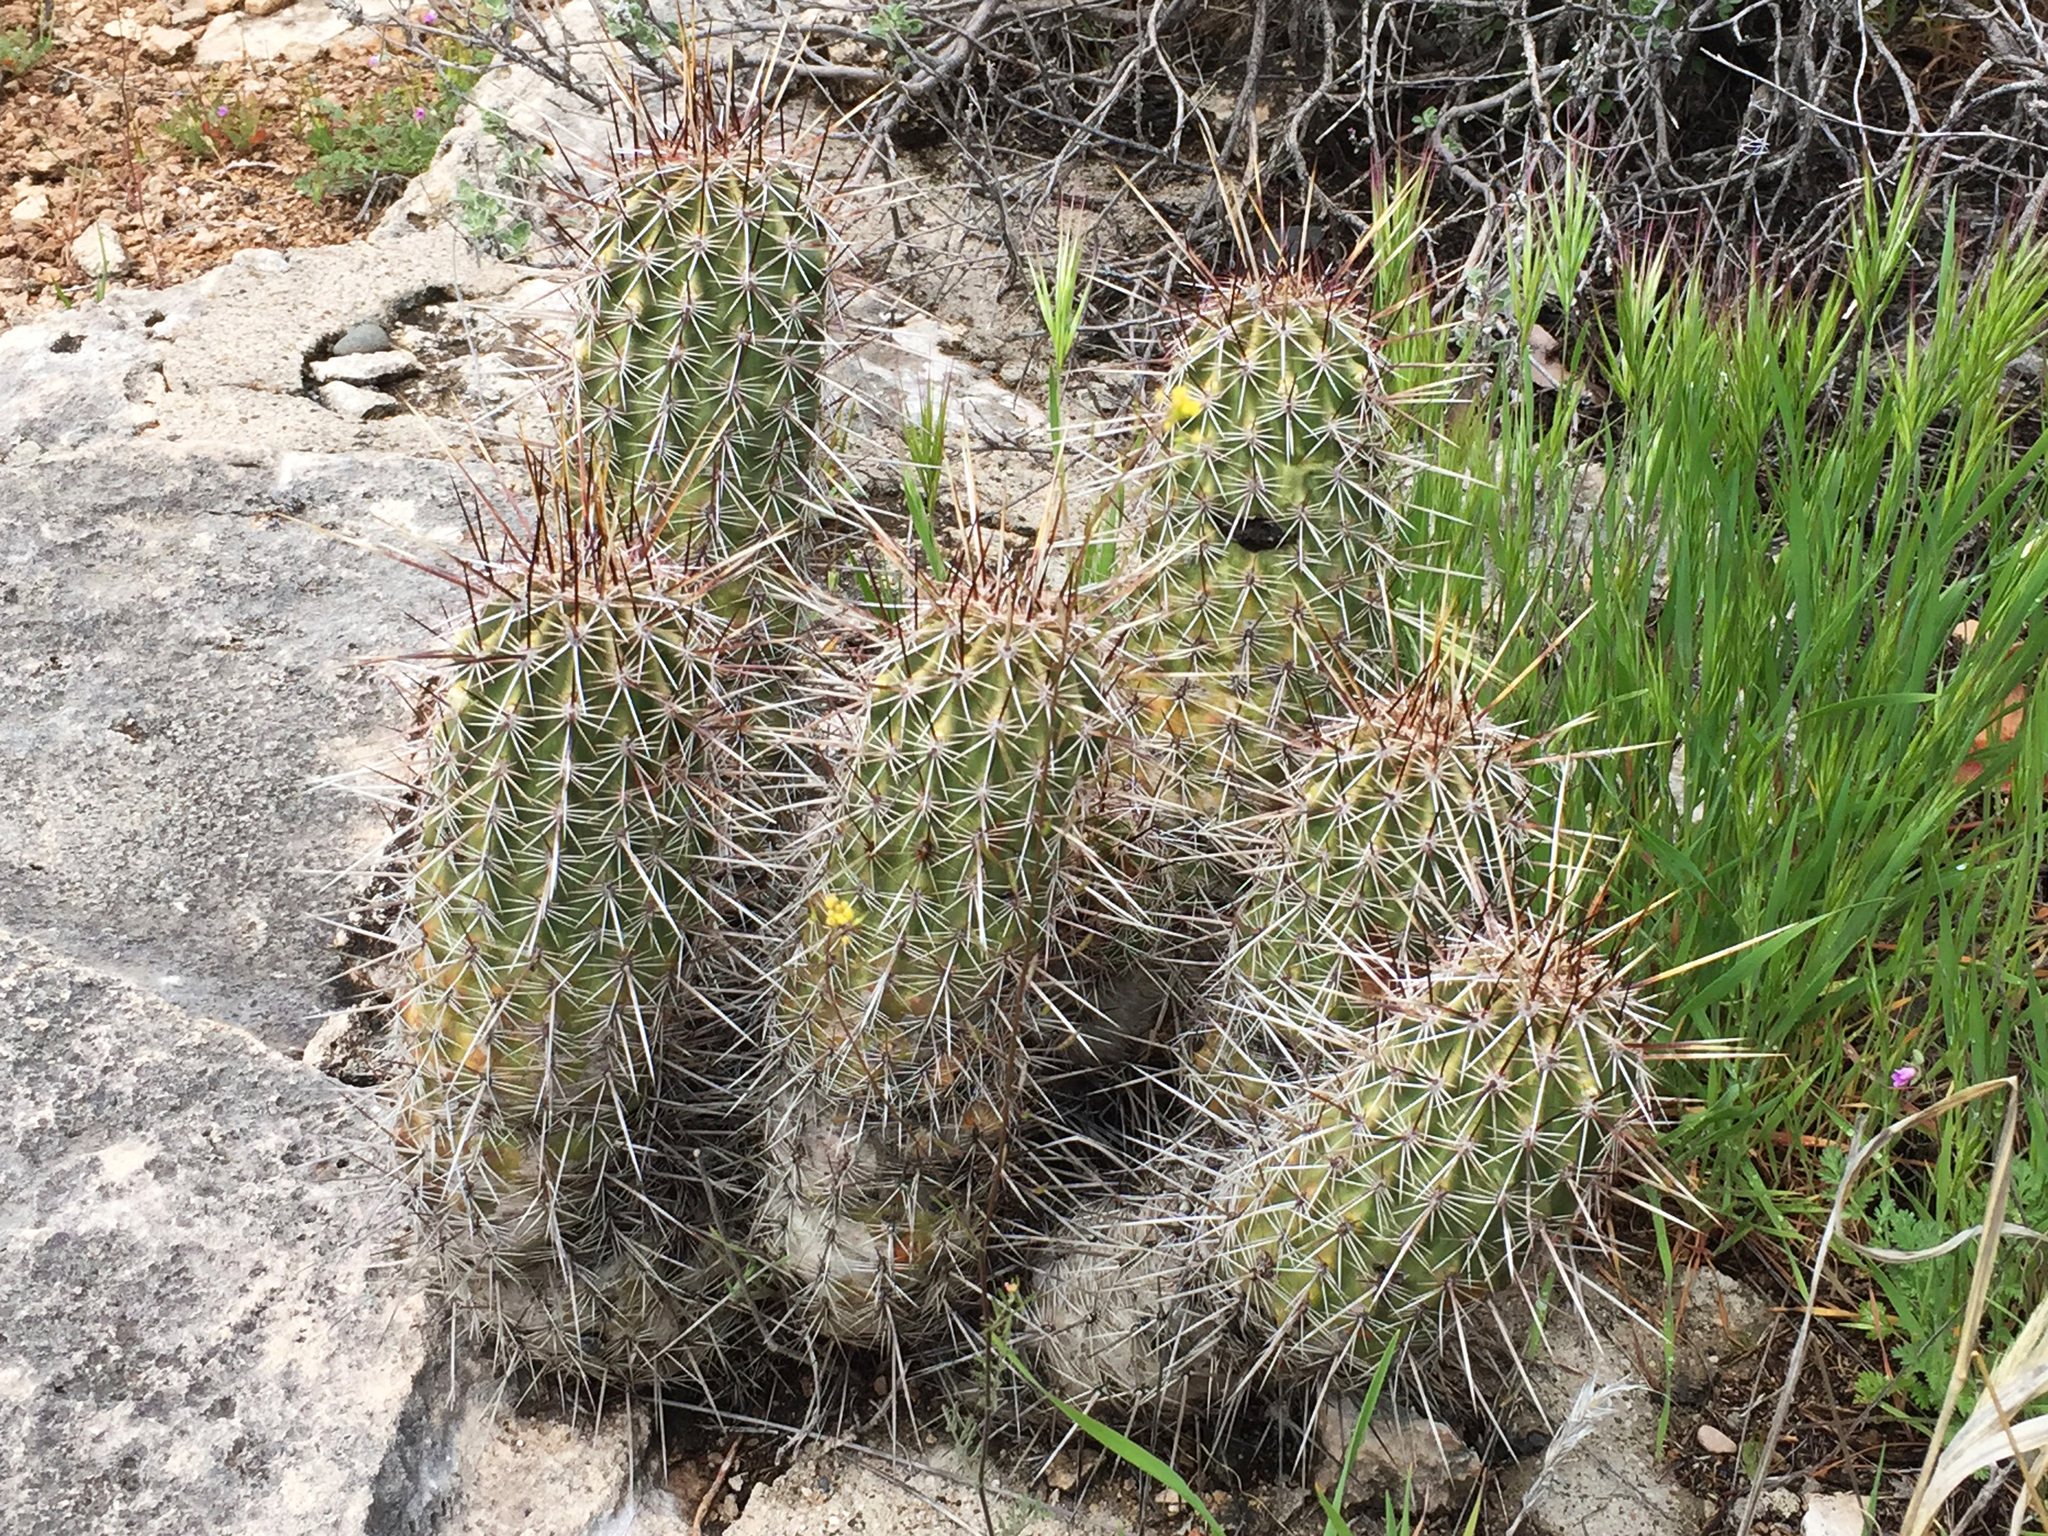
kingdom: Plantae
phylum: Tracheophyta
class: Magnoliopsida
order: Caryophyllales
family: Cactaceae
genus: Echinocereus
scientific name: Echinocereus fasciculatus
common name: Bundle hedgehog
